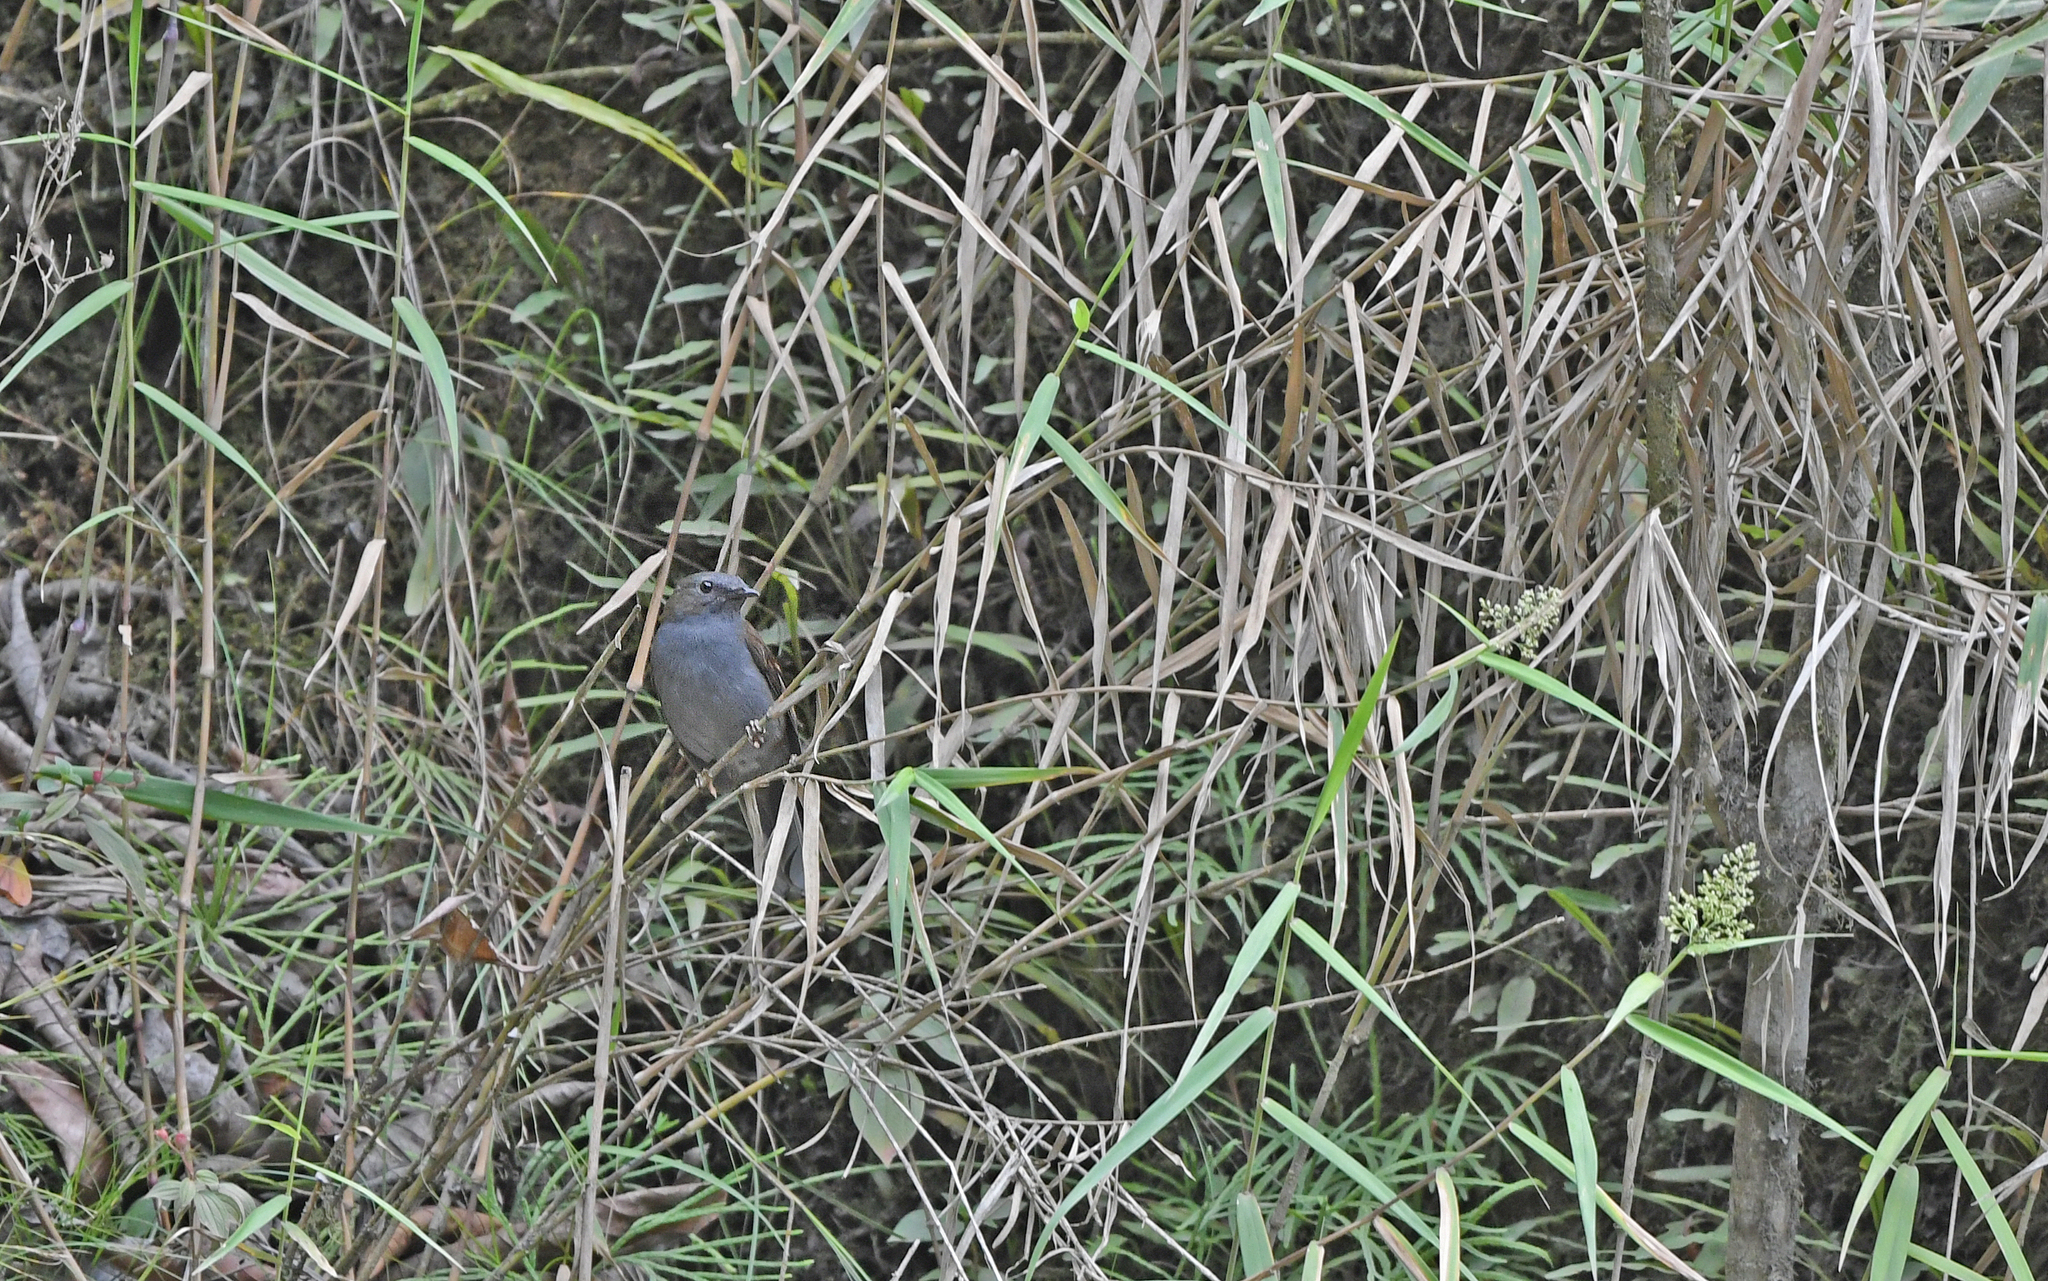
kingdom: Animalia
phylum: Chordata
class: Aves
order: Passeriformes
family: Turdidae
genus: Myadestes
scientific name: Myadestes ralloides
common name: Andean solitaire
